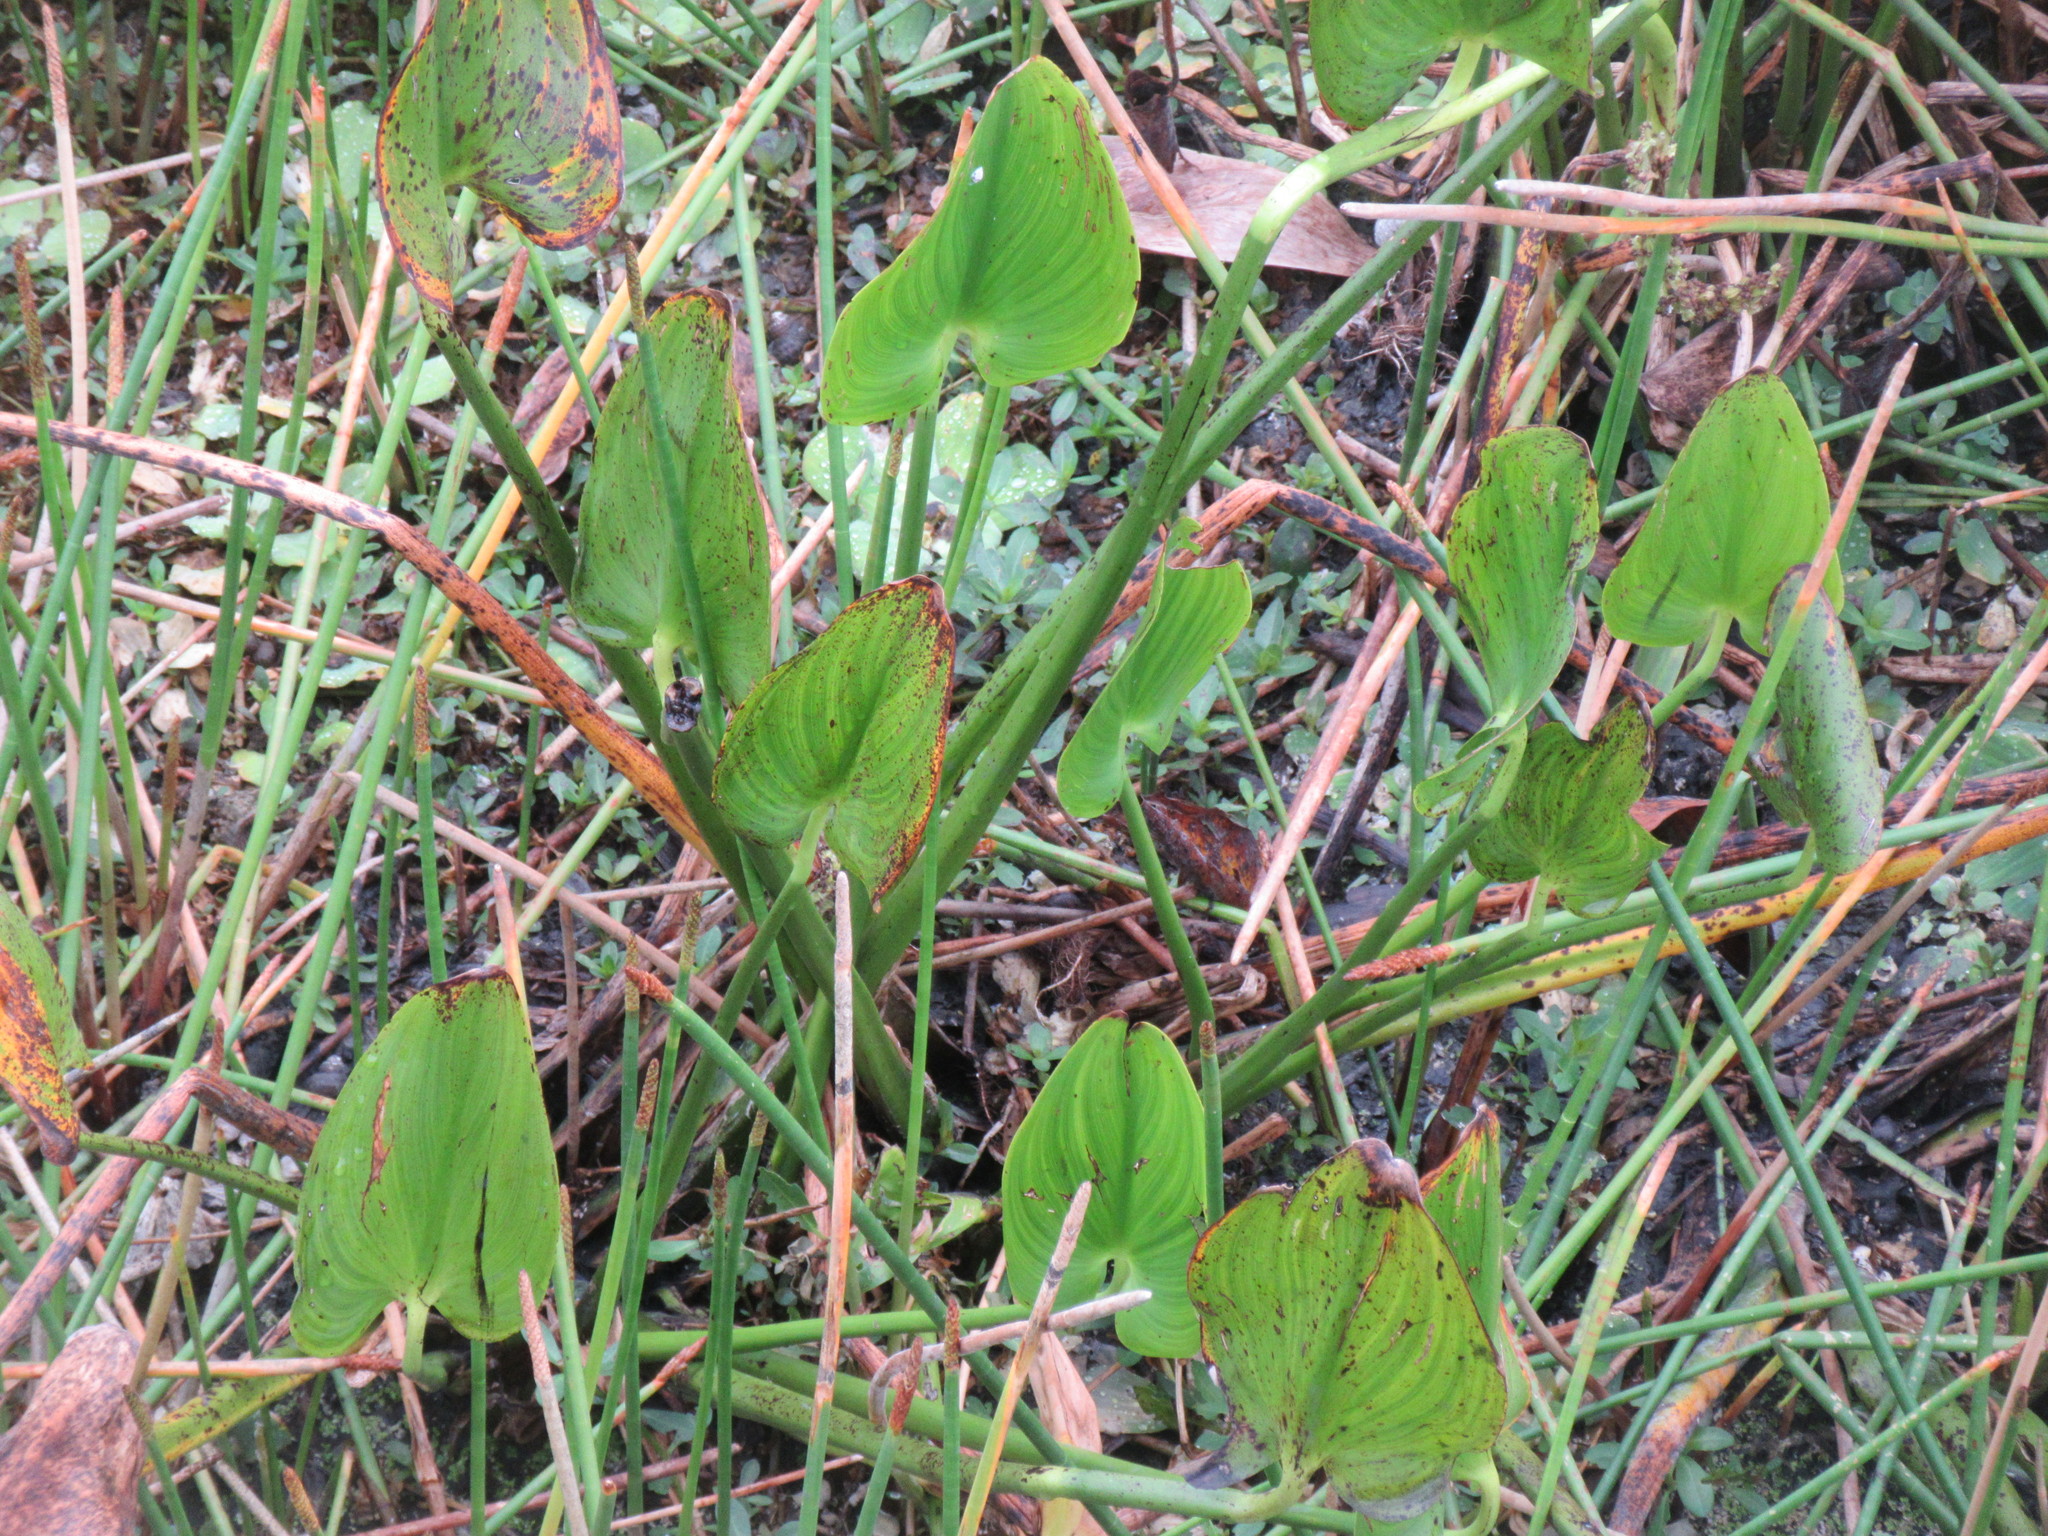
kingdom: Plantae
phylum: Tracheophyta
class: Liliopsida
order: Commelinales
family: Pontederiaceae
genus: Pontederia
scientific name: Pontederia cordata
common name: Pickerelweed
